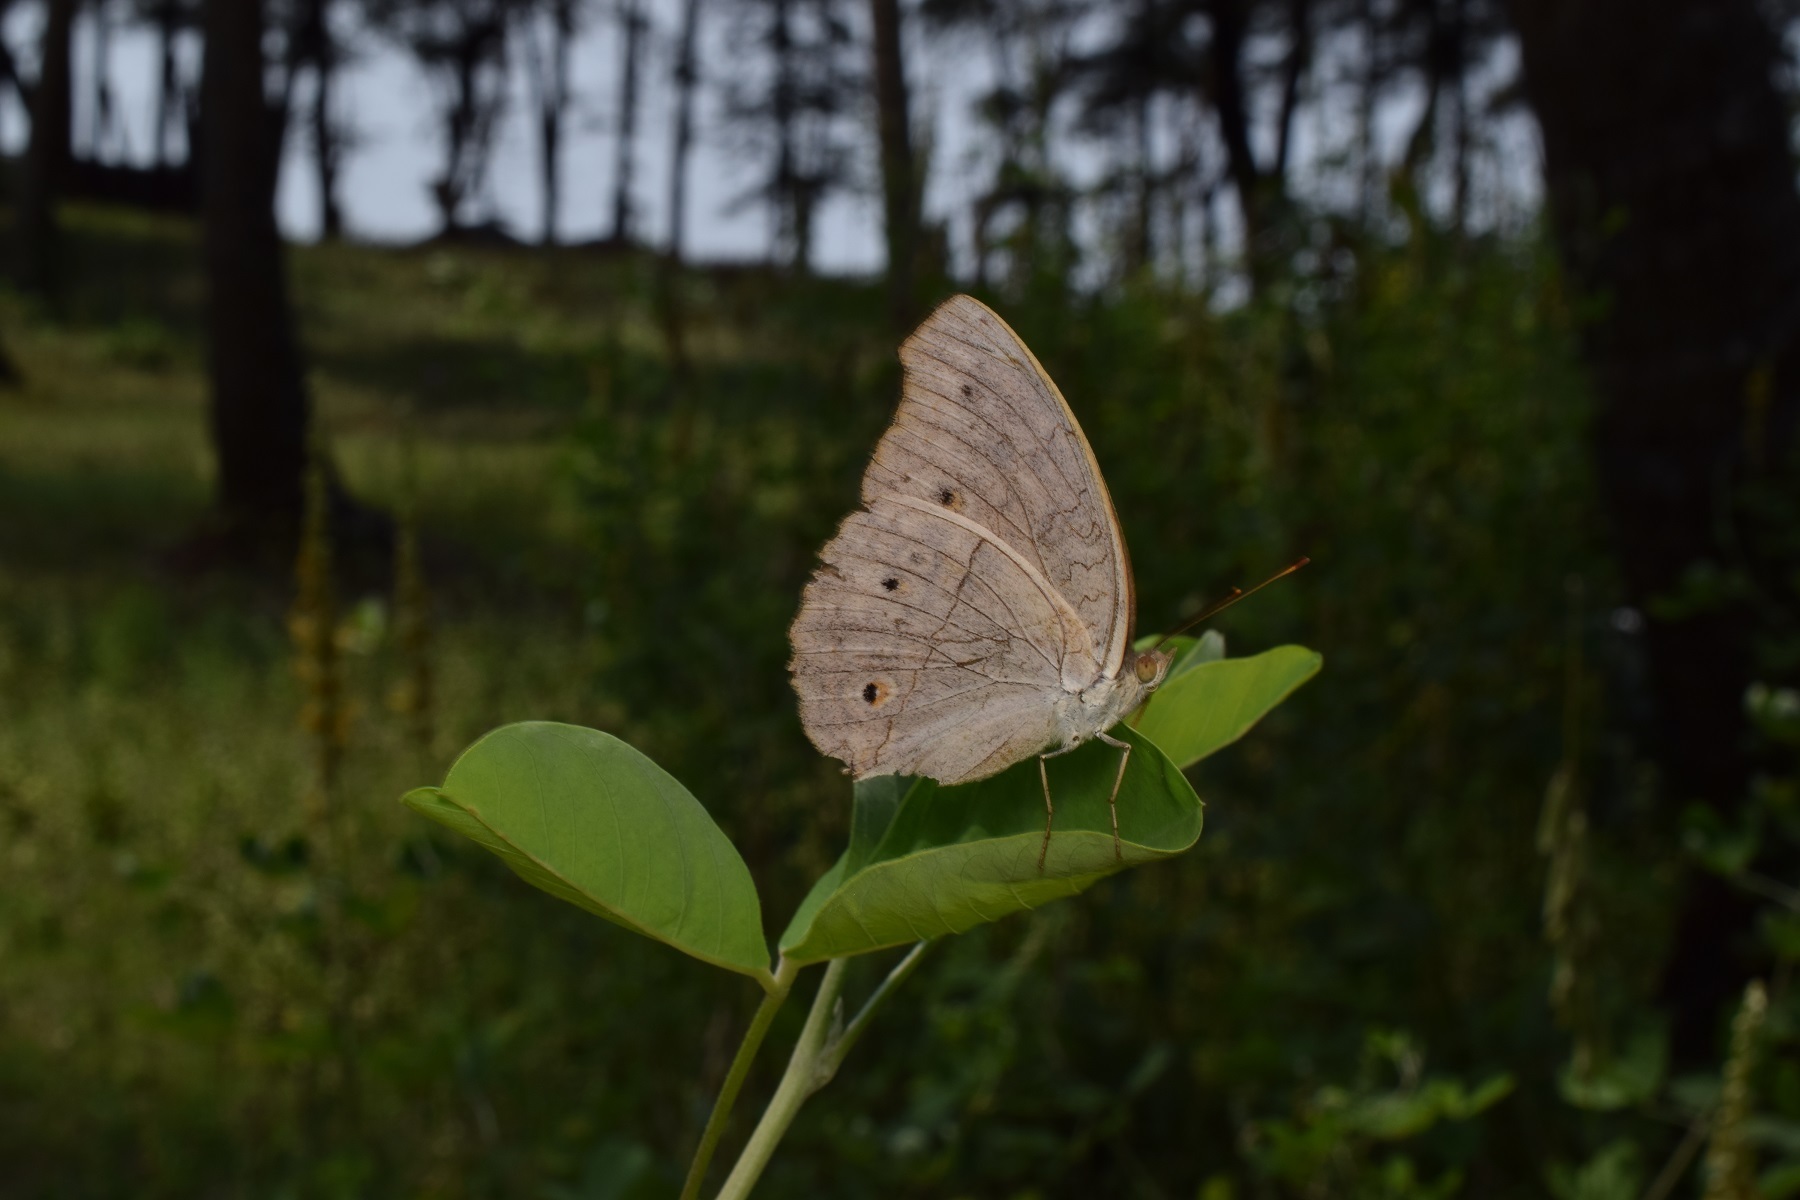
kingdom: Animalia
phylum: Arthropoda
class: Insecta
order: Lepidoptera
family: Nymphalidae
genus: Junonia
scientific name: Junonia atlites
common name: Grey pansy
